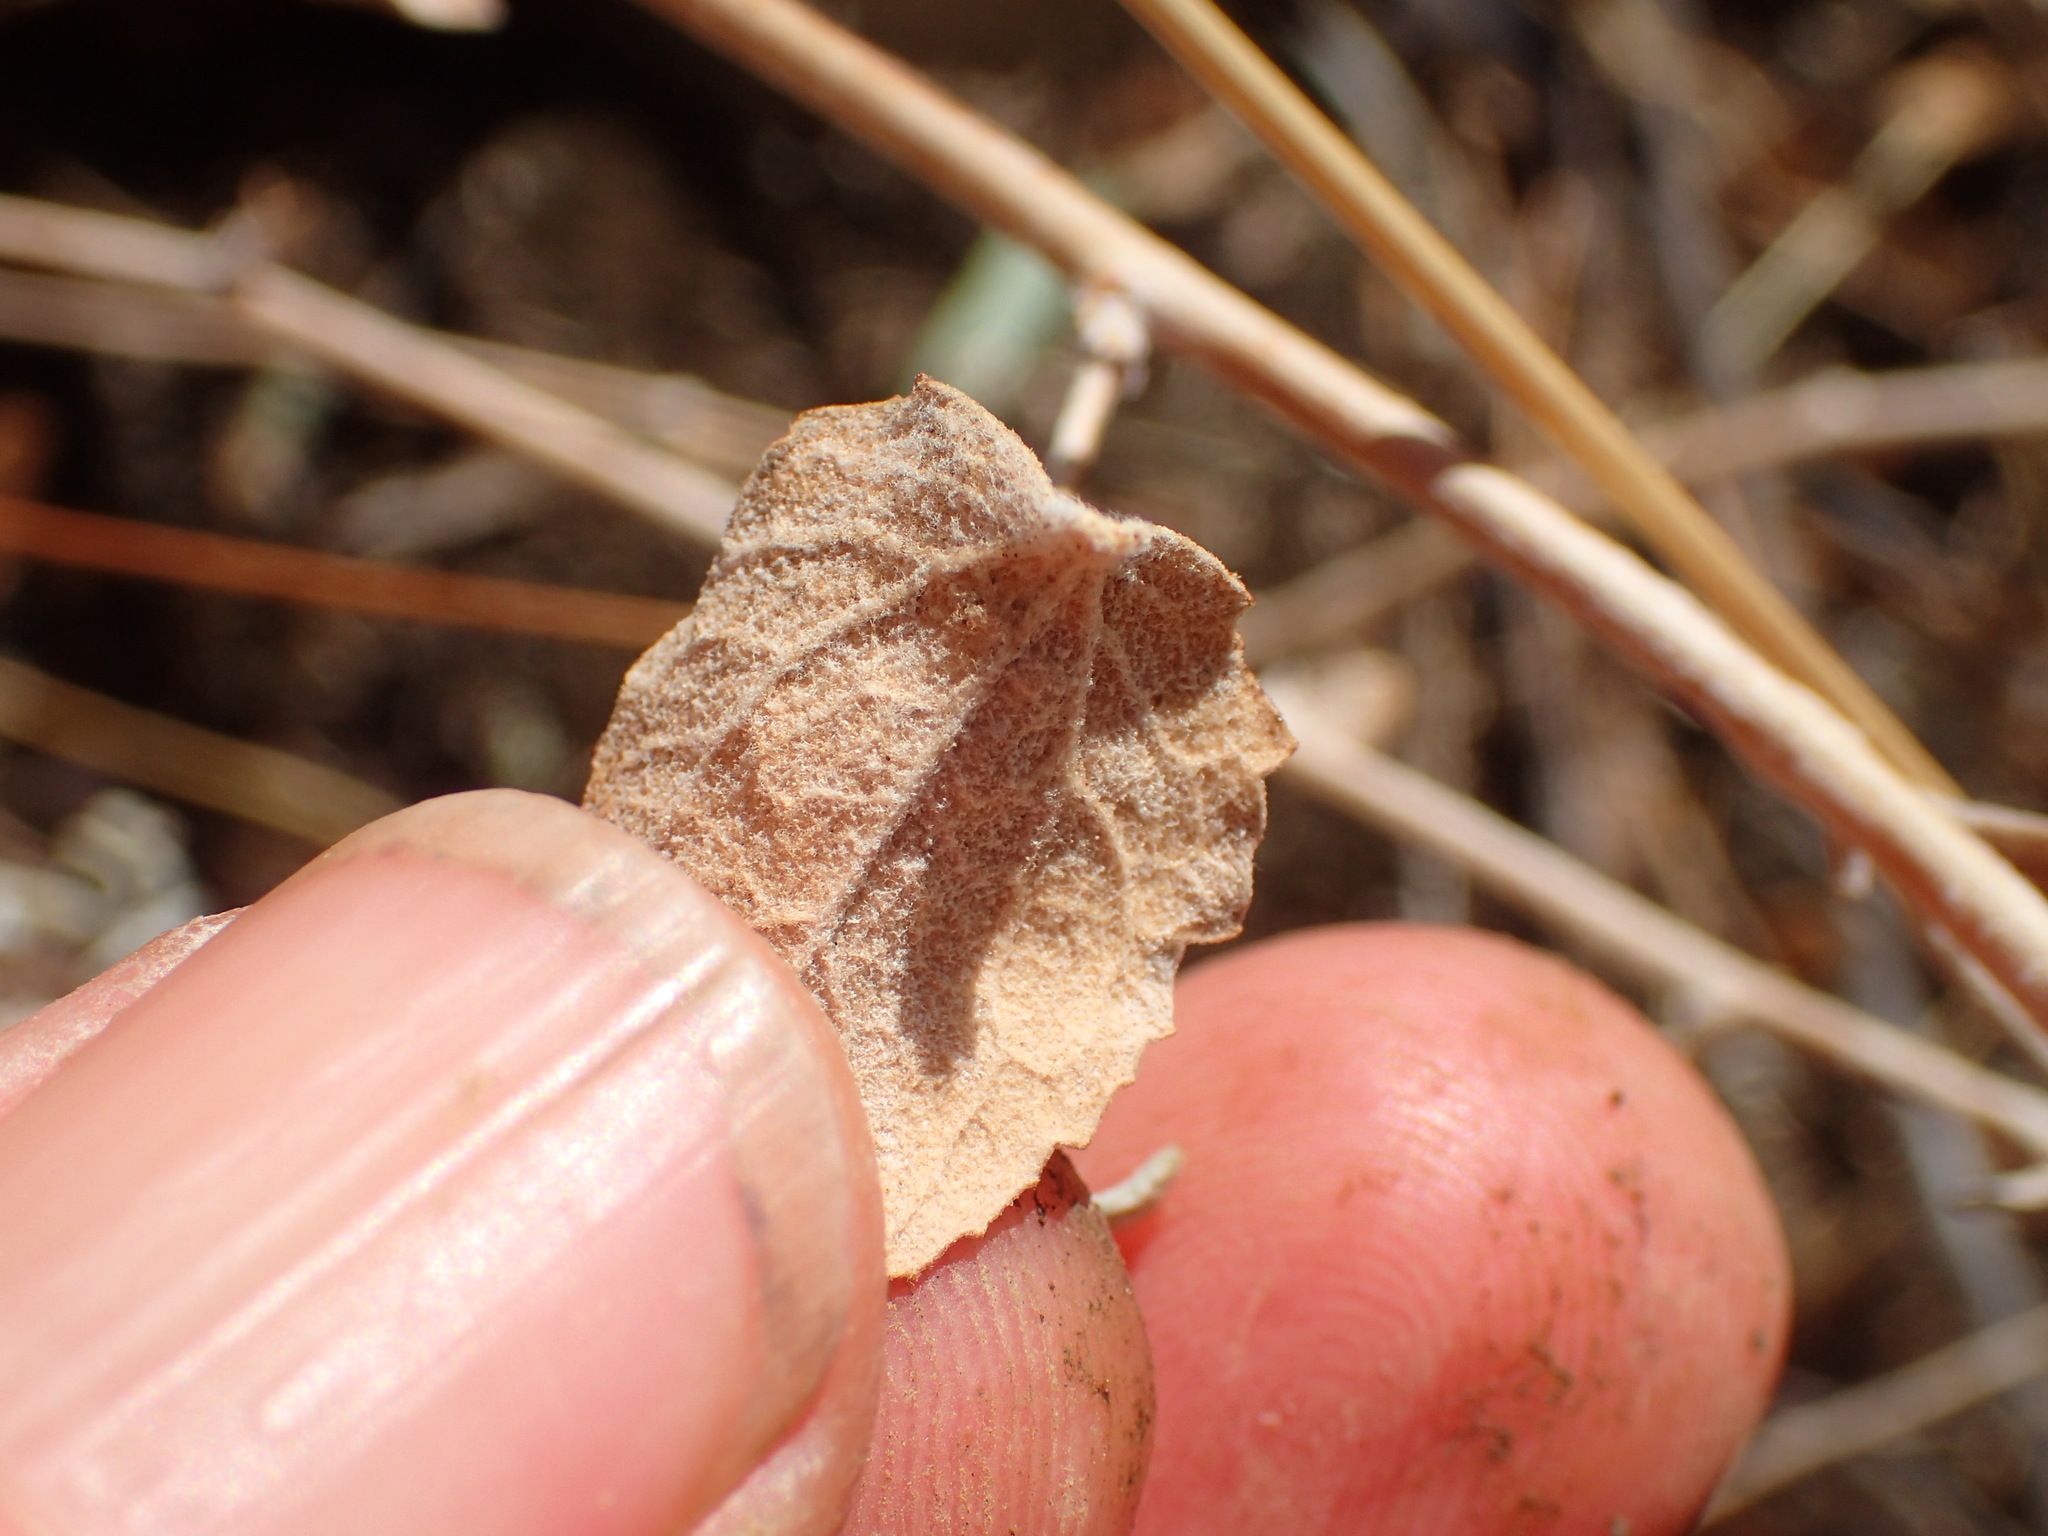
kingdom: Plantae
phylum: Tracheophyta
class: Magnoliopsida
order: Asterales
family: Asteraceae
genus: Brickellia
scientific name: Brickellia nevinii
